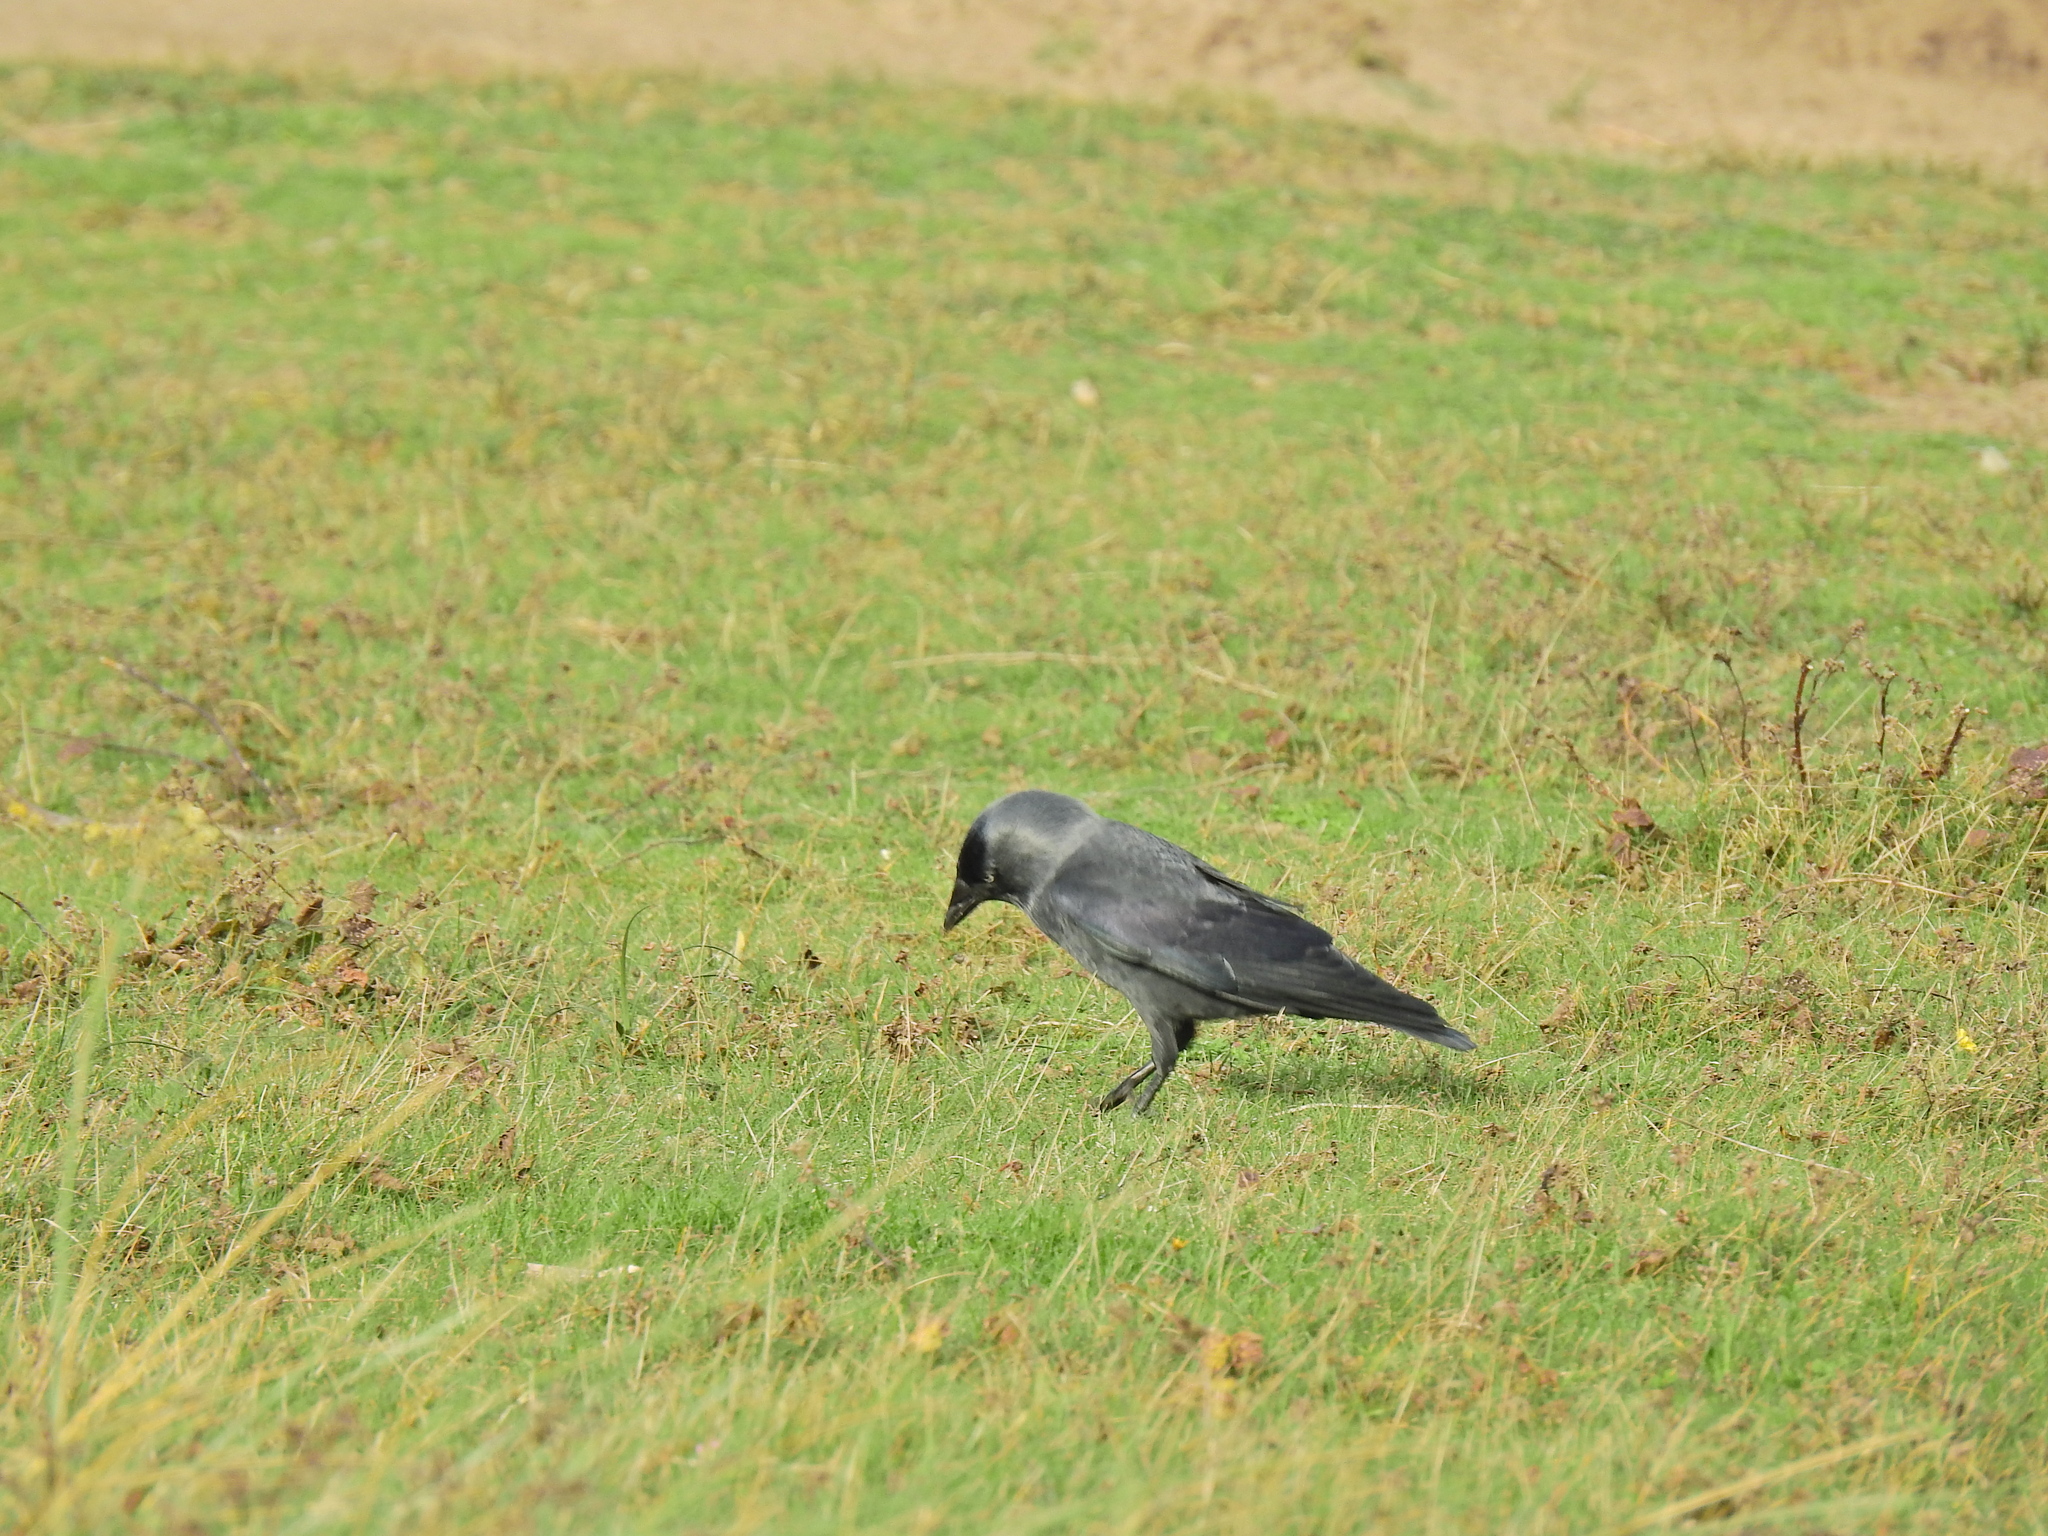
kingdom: Animalia
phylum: Chordata
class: Aves
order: Passeriformes
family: Corvidae
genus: Coloeus
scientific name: Coloeus monedula
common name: Western jackdaw
